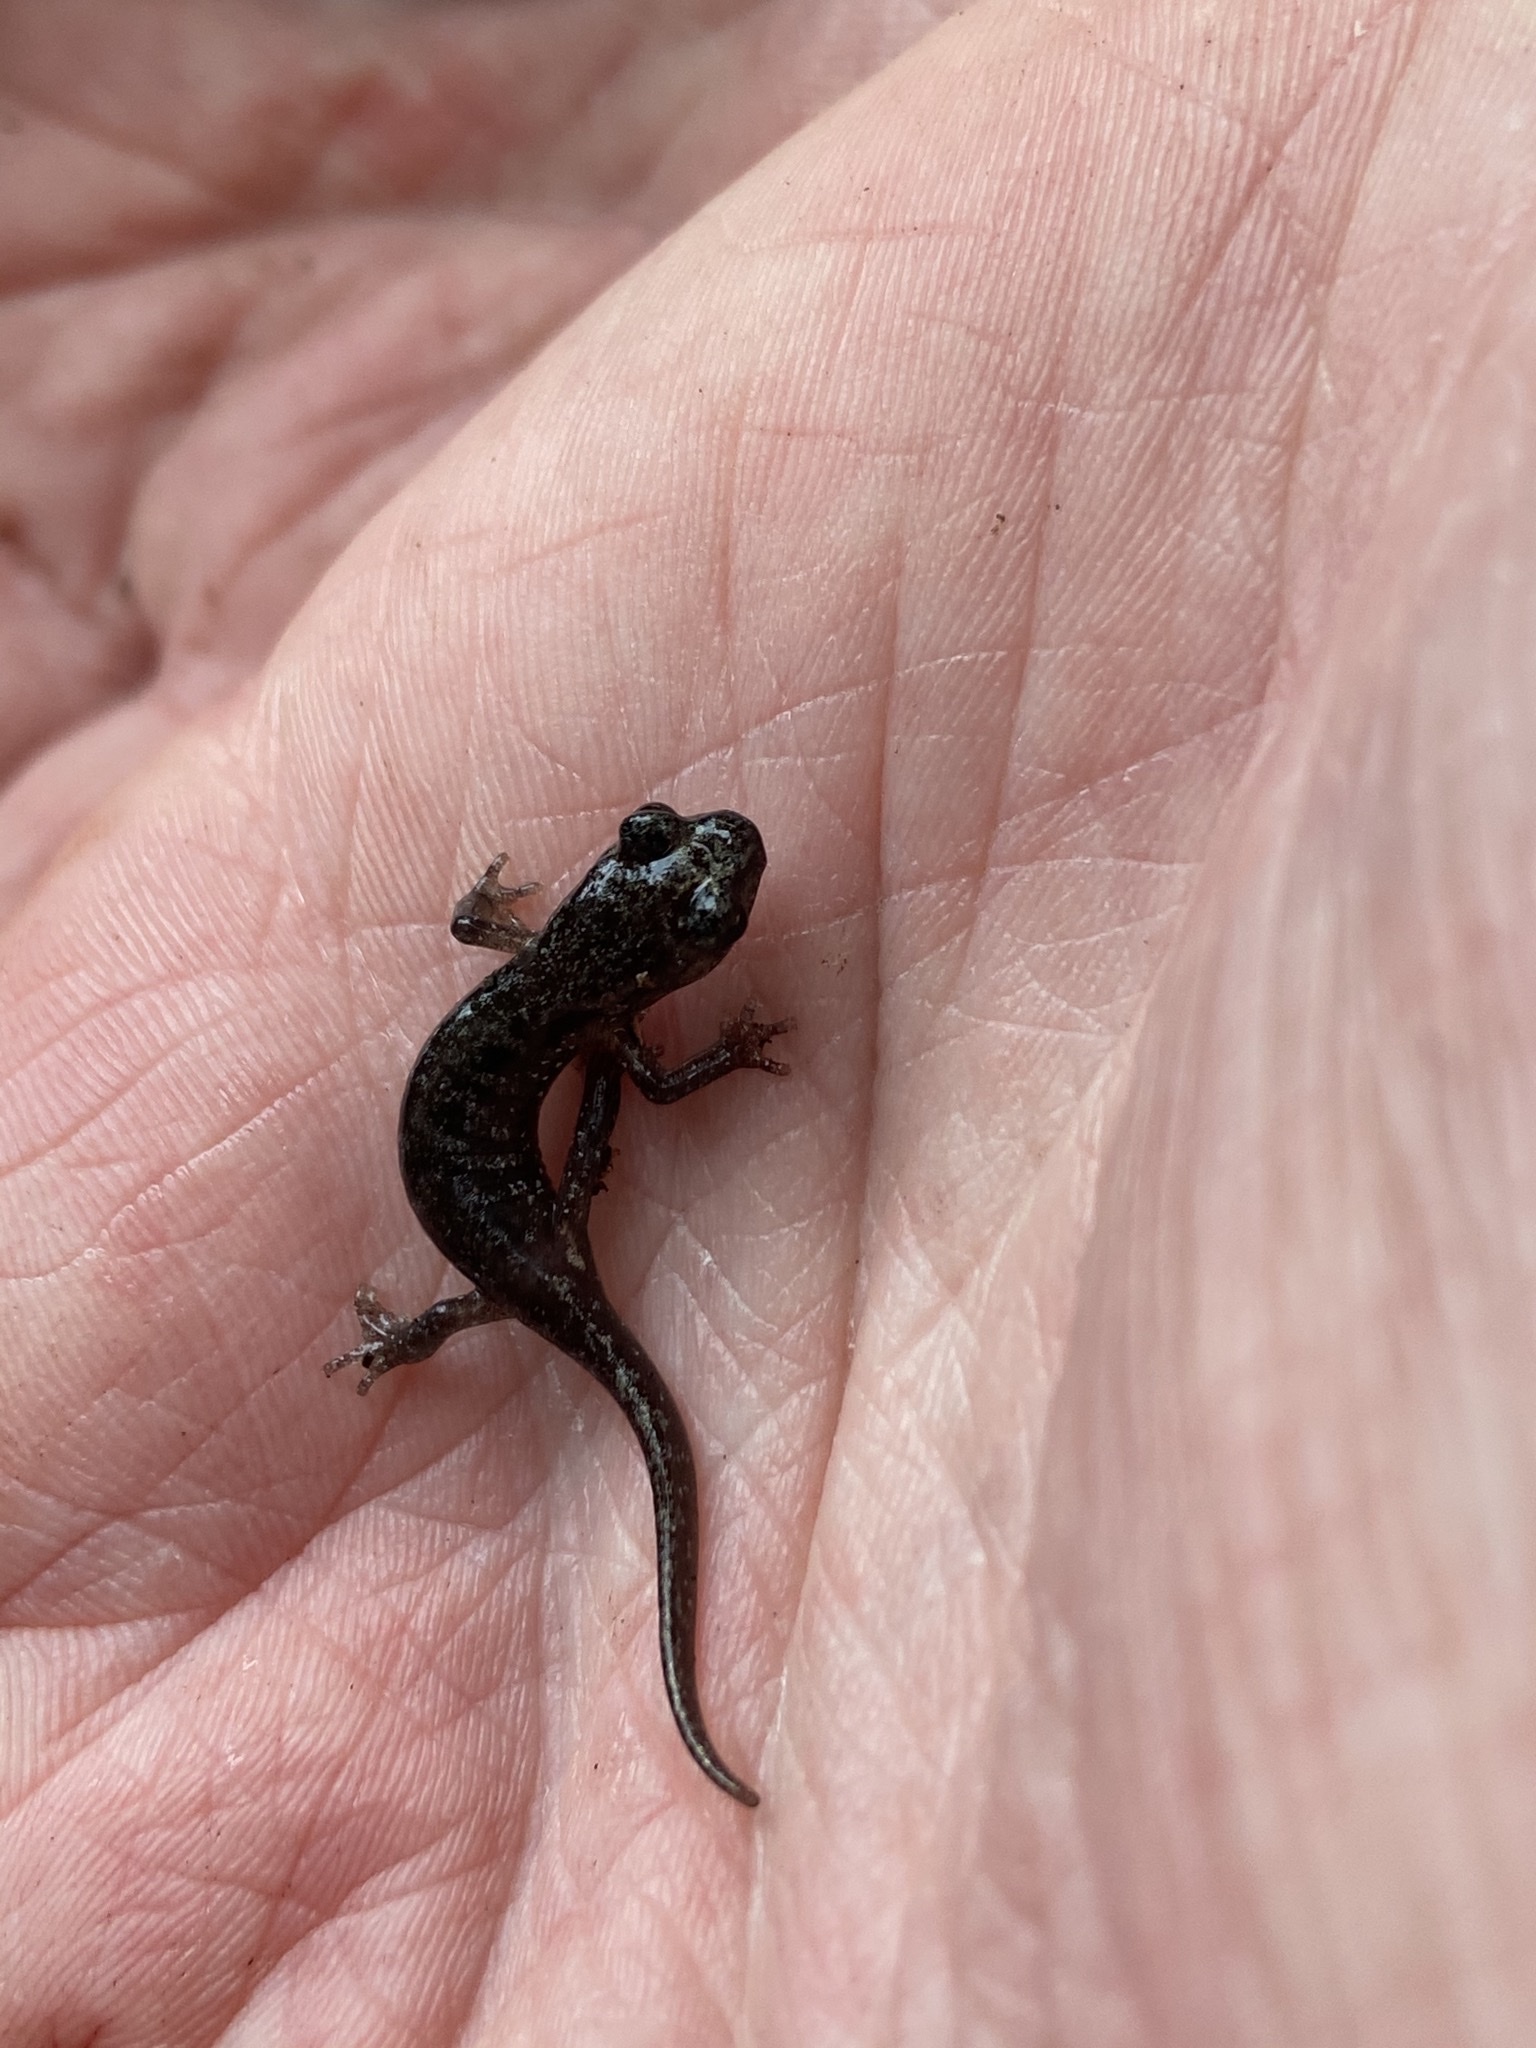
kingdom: Animalia
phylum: Chordata
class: Amphibia
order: Caudata
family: Plethodontidae
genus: Aneides
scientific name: Aneides lugubris
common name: Arboreal salamander
